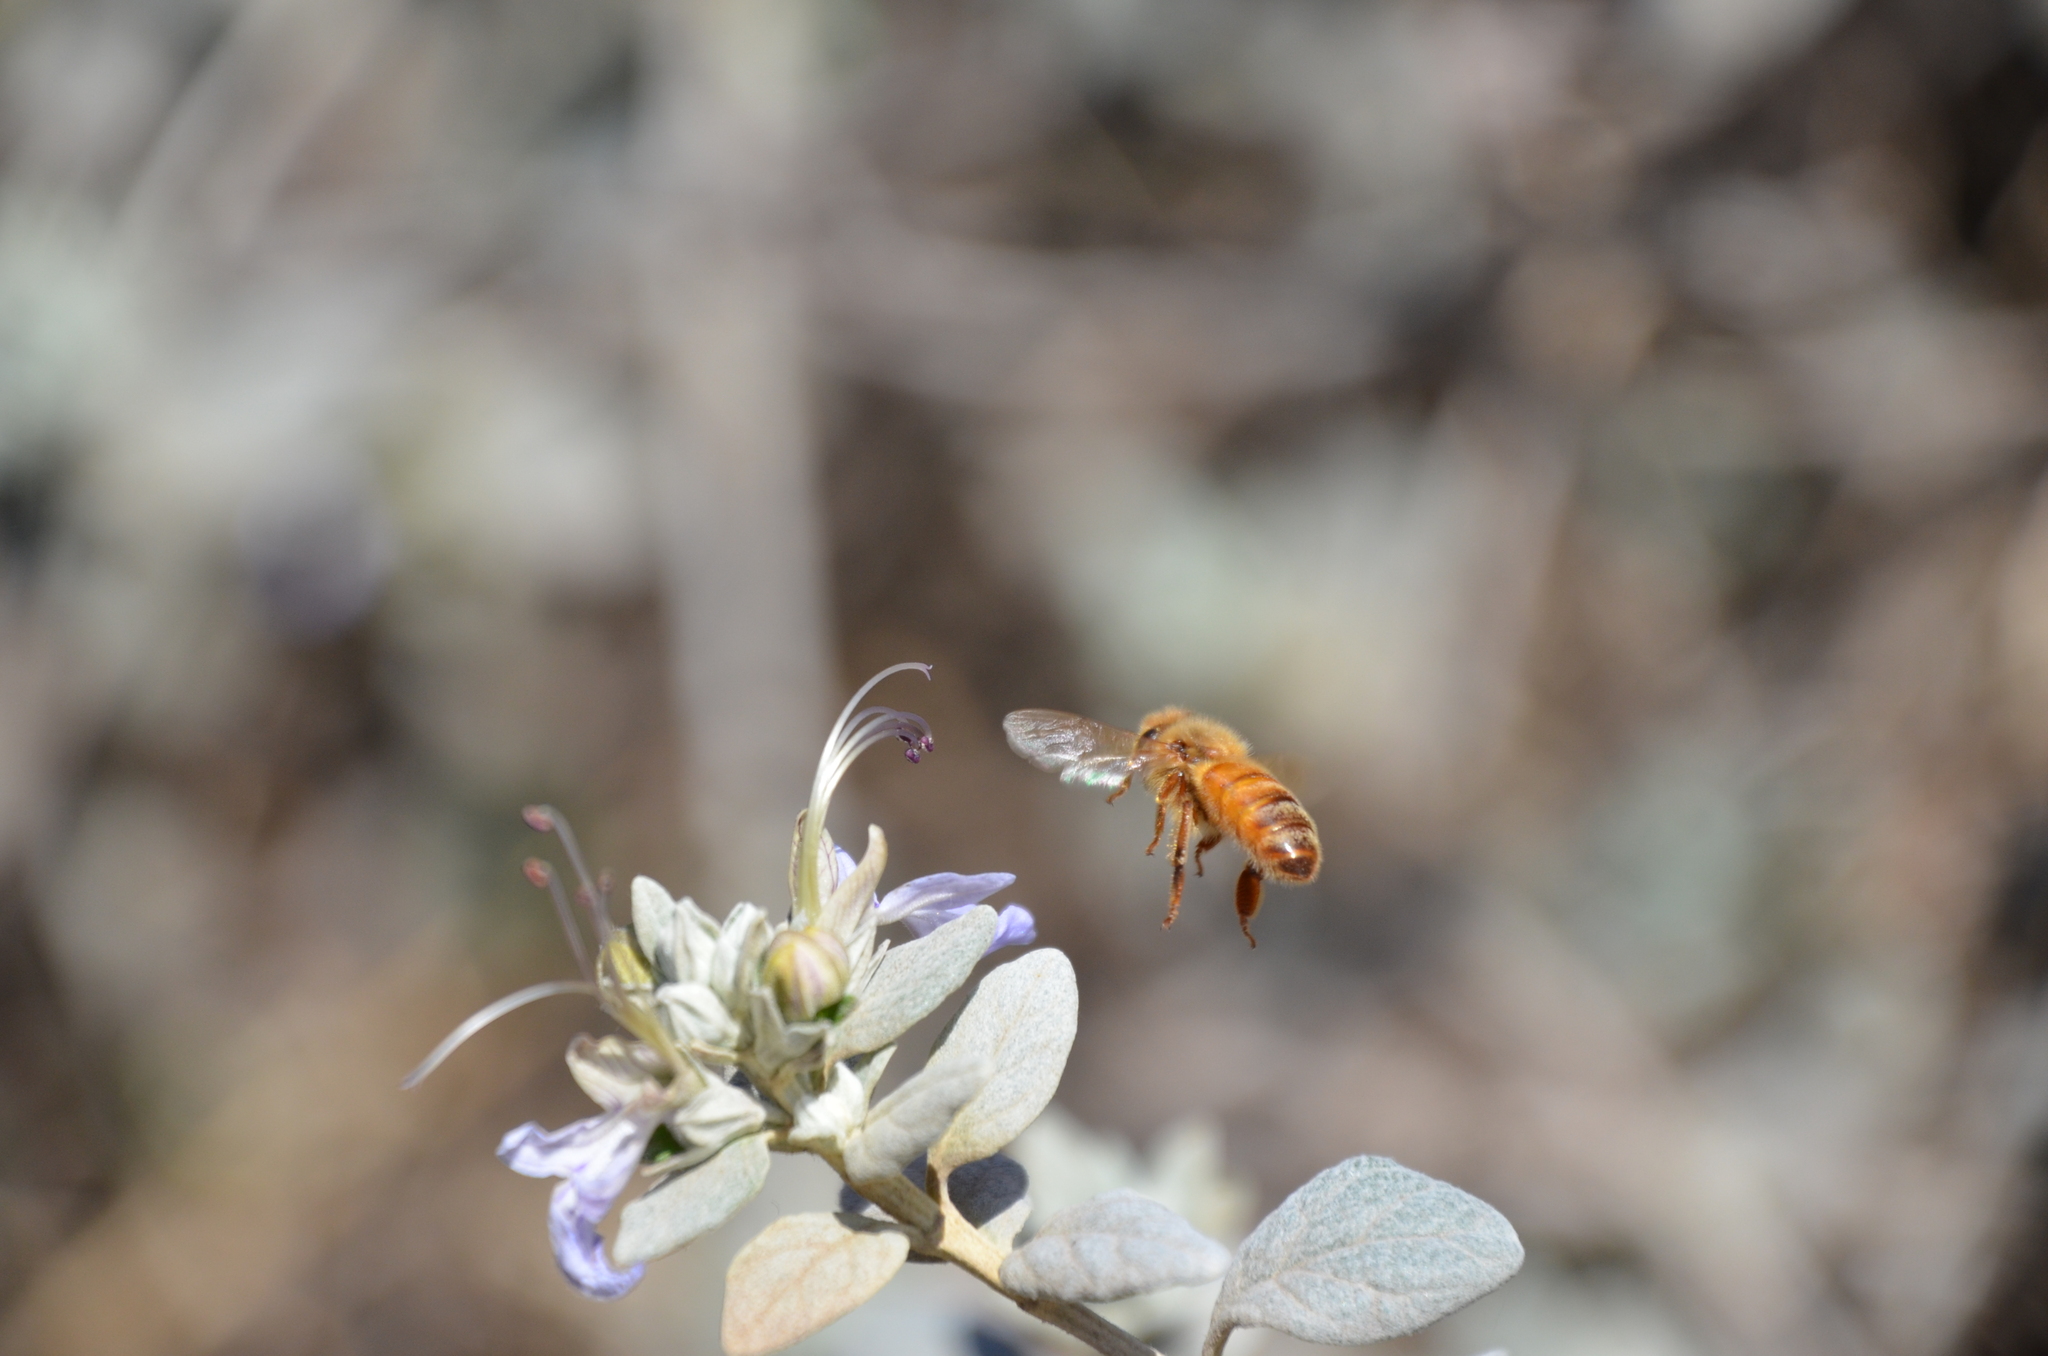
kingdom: Animalia
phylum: Arthropoda
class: Insecta
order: Hymenoptera
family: Apidae
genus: Apis
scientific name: Apis mellifera
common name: Honey bee
